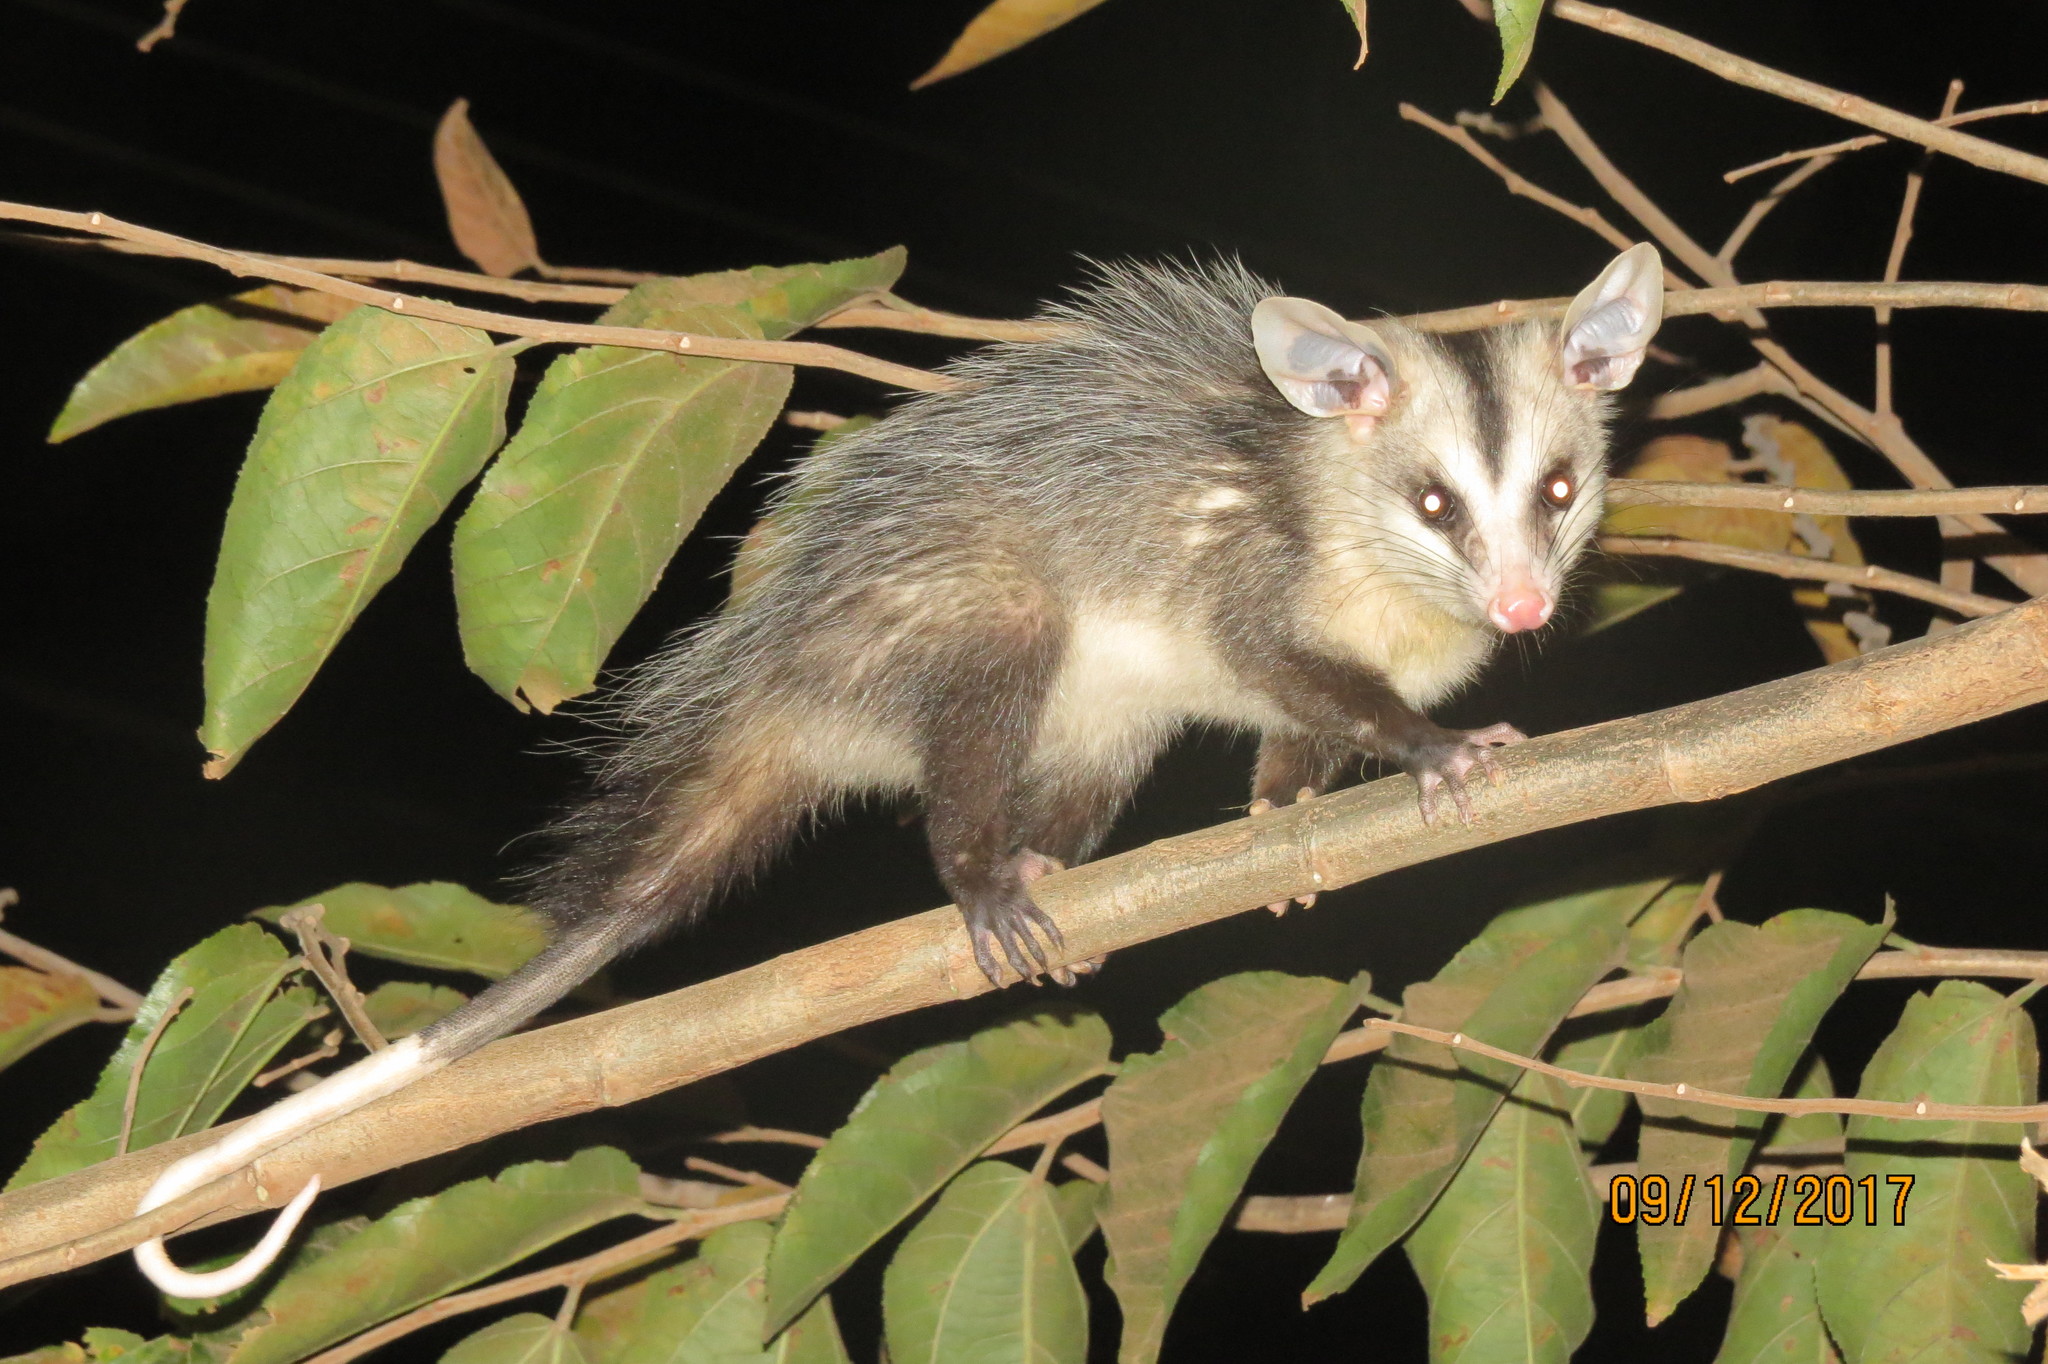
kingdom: Animalia
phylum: Chordata
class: Mammalia
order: Didelphimorphia
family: Didelphidae
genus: Didelphis
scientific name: Didelphis albiventris
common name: White-eared opossum
